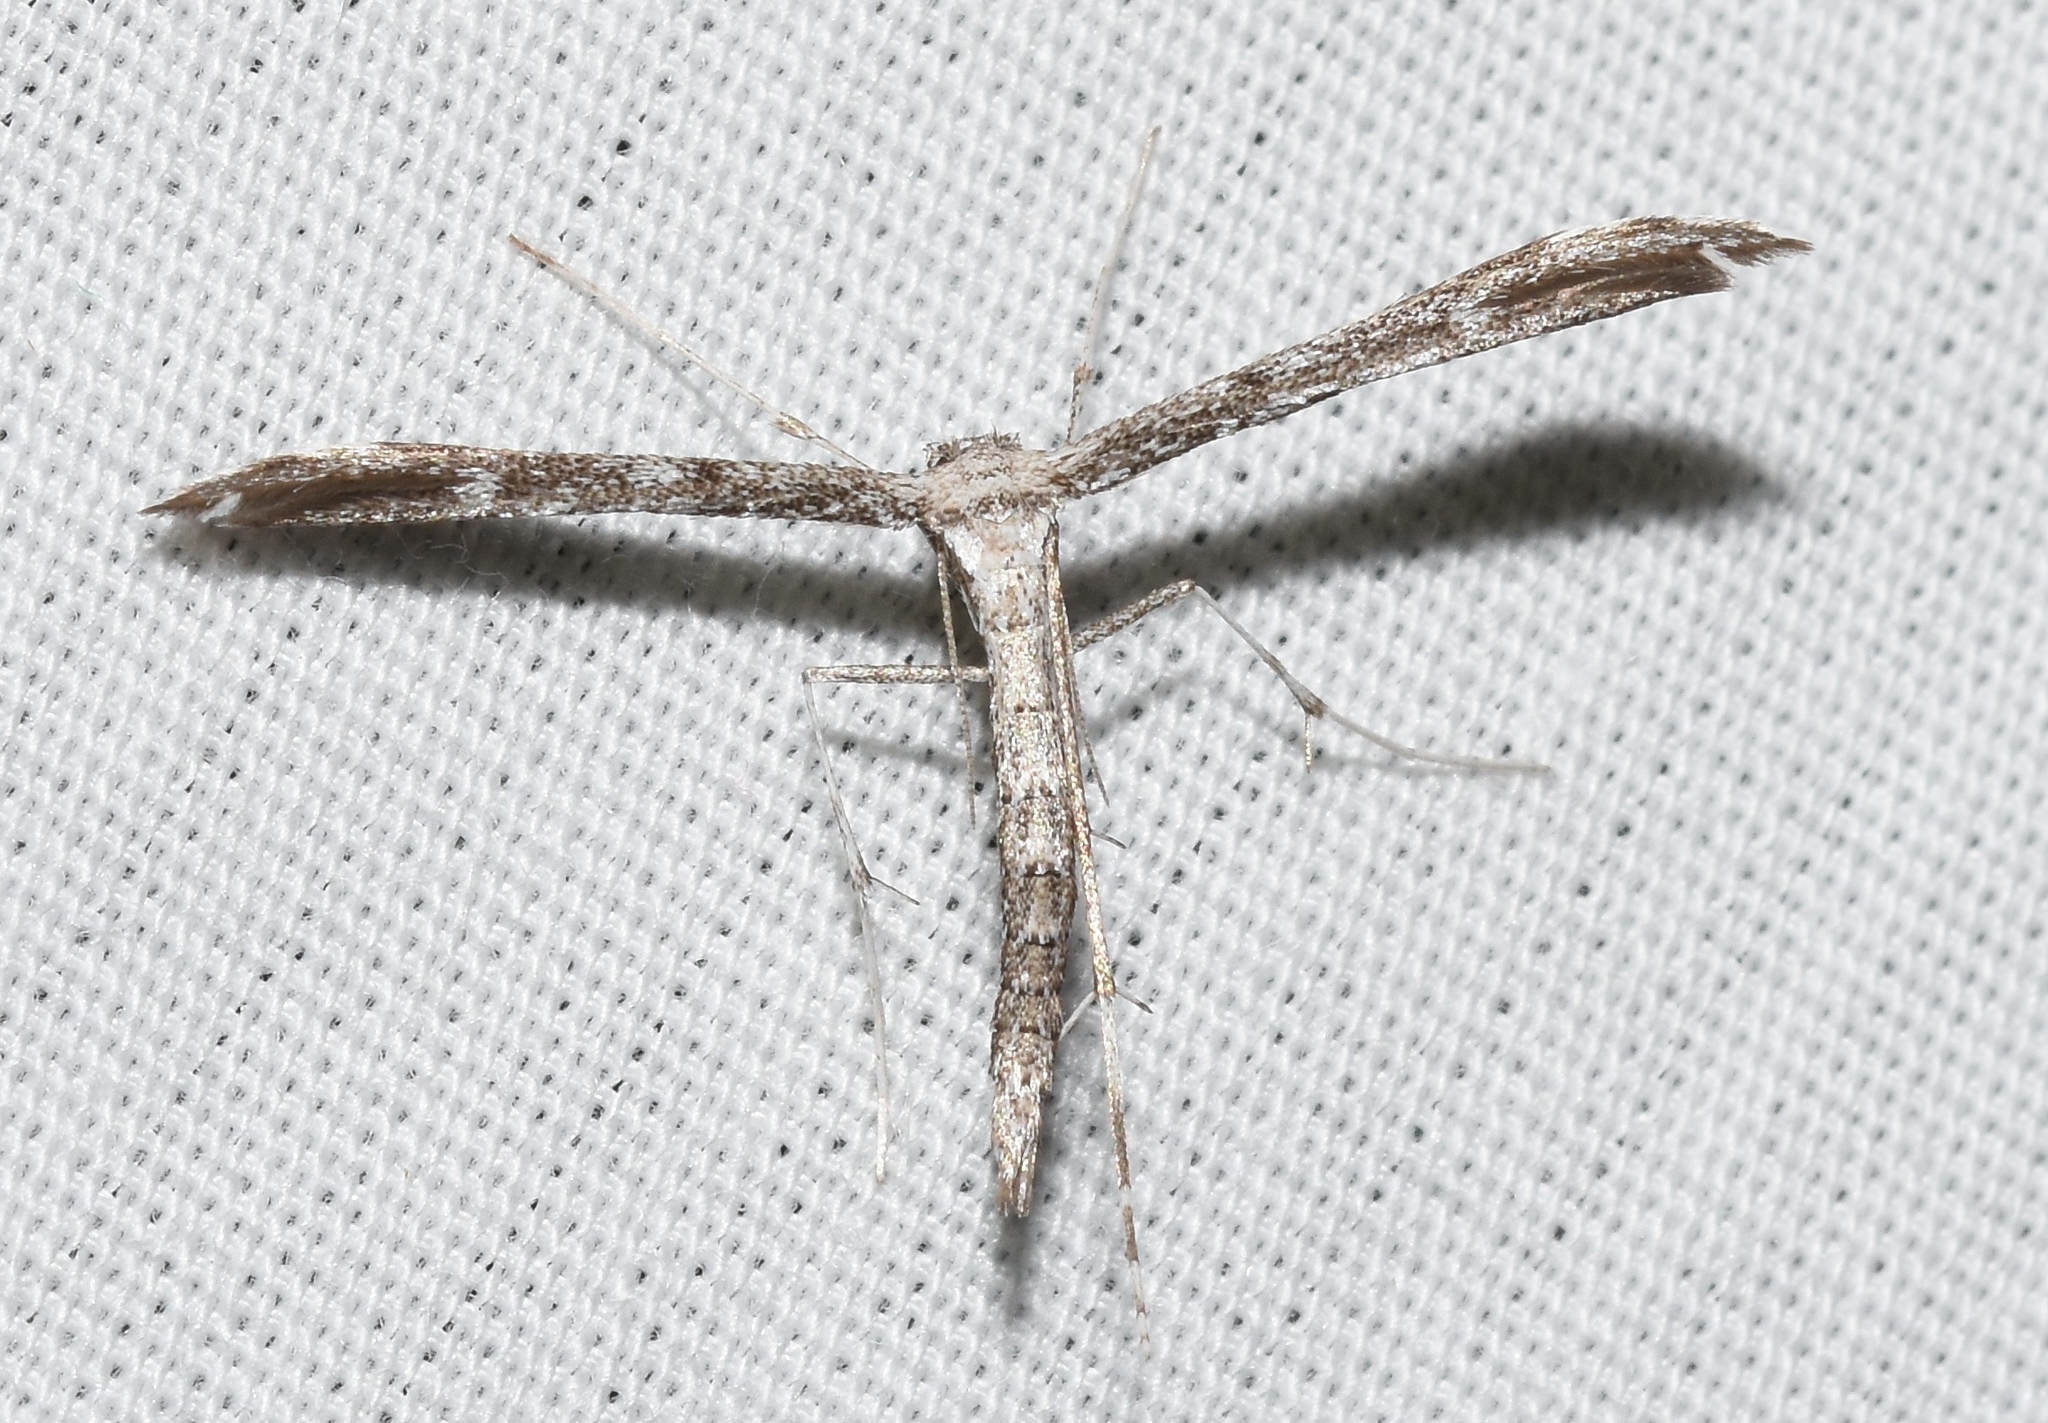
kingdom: Animalia
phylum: Arthropoda
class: Insecta
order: Lepidoptera
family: Pterophoridae
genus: Hellinsia
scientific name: Hellinsia inquinatus
